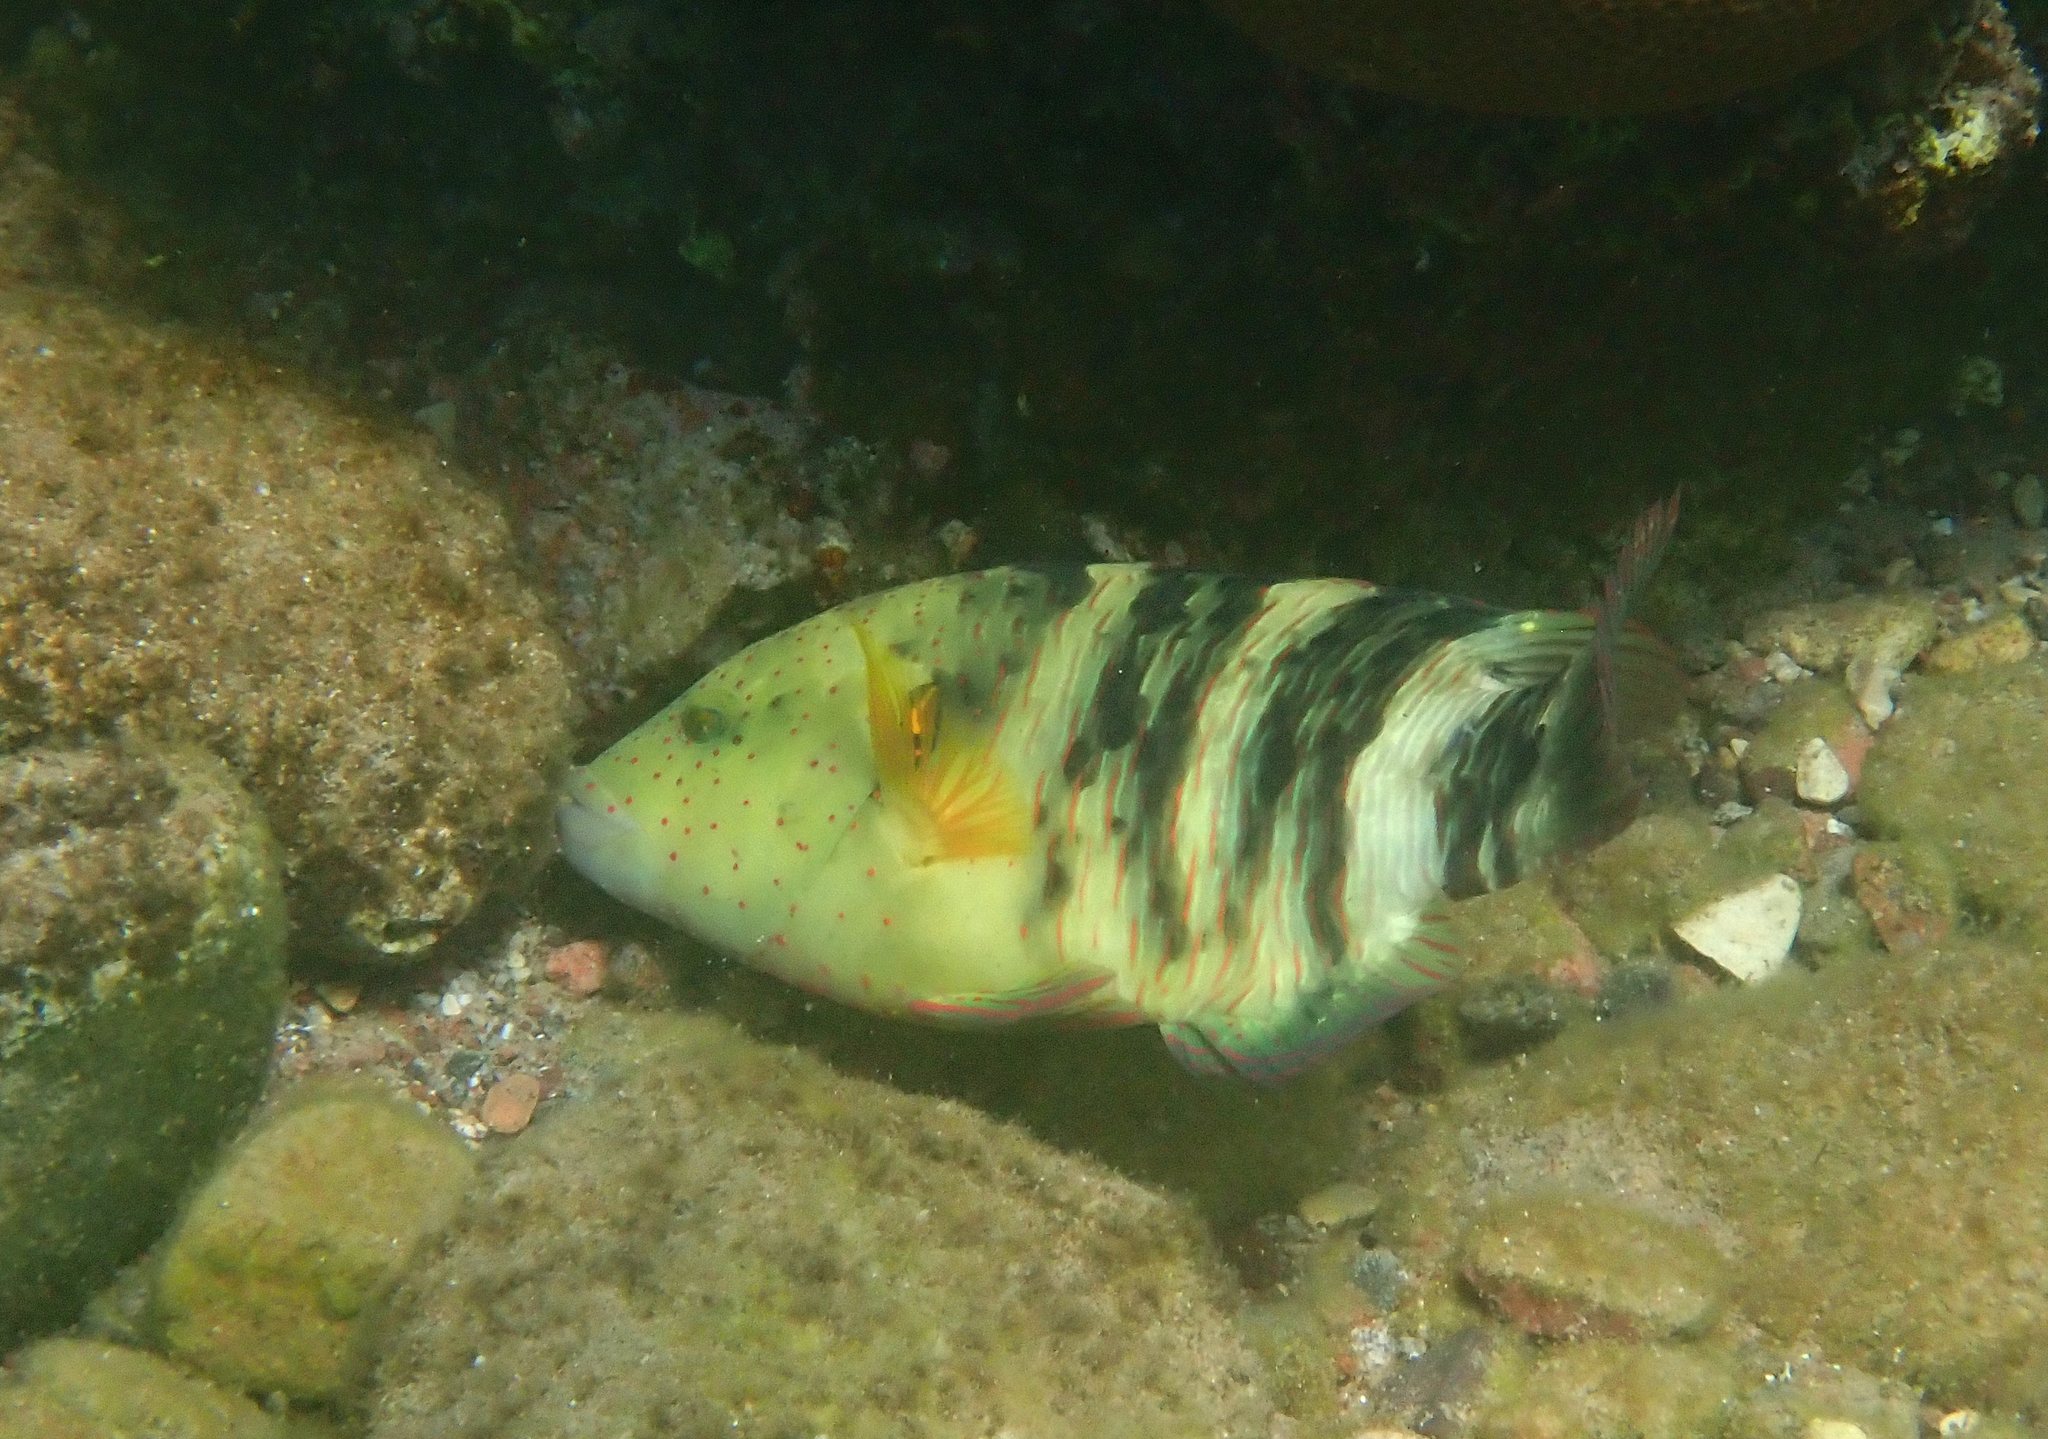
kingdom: Animalia
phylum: Chordata
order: Perciformes
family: Labridae
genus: Cheilinus
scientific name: Cheilinus lunulatus
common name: Broomtail wrasse
